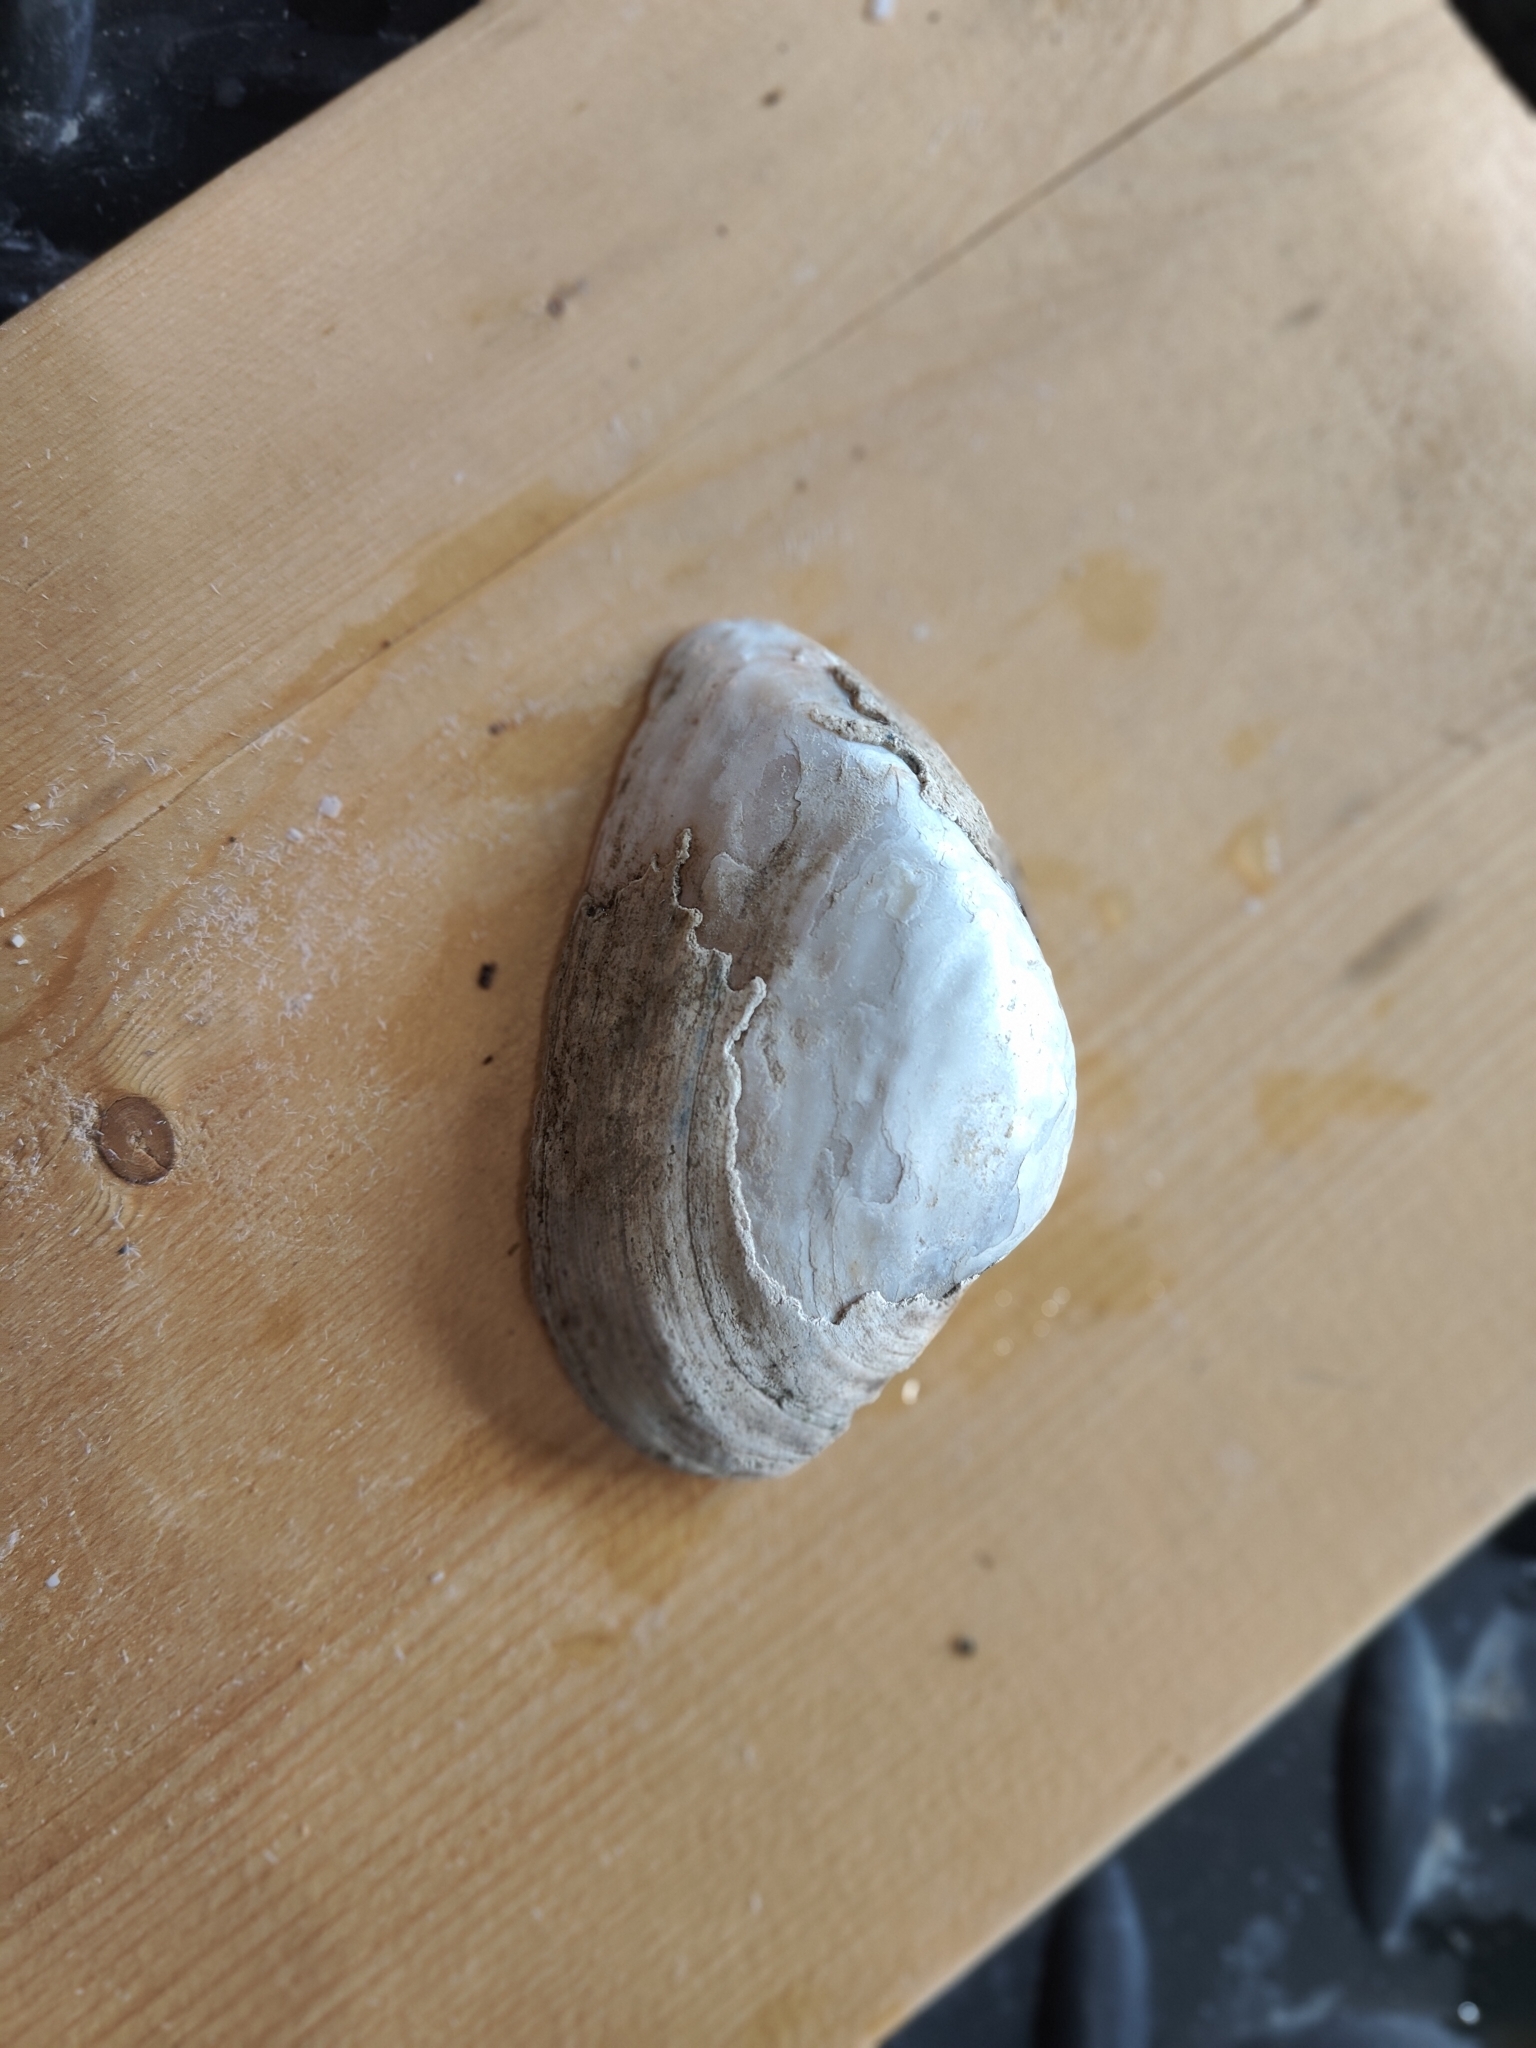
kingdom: Animalia
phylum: Mollusca
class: Bivalvia
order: Unionida
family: Unionidae
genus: Alasmidonta
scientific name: Alasmidonta marginata
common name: Elktoe
